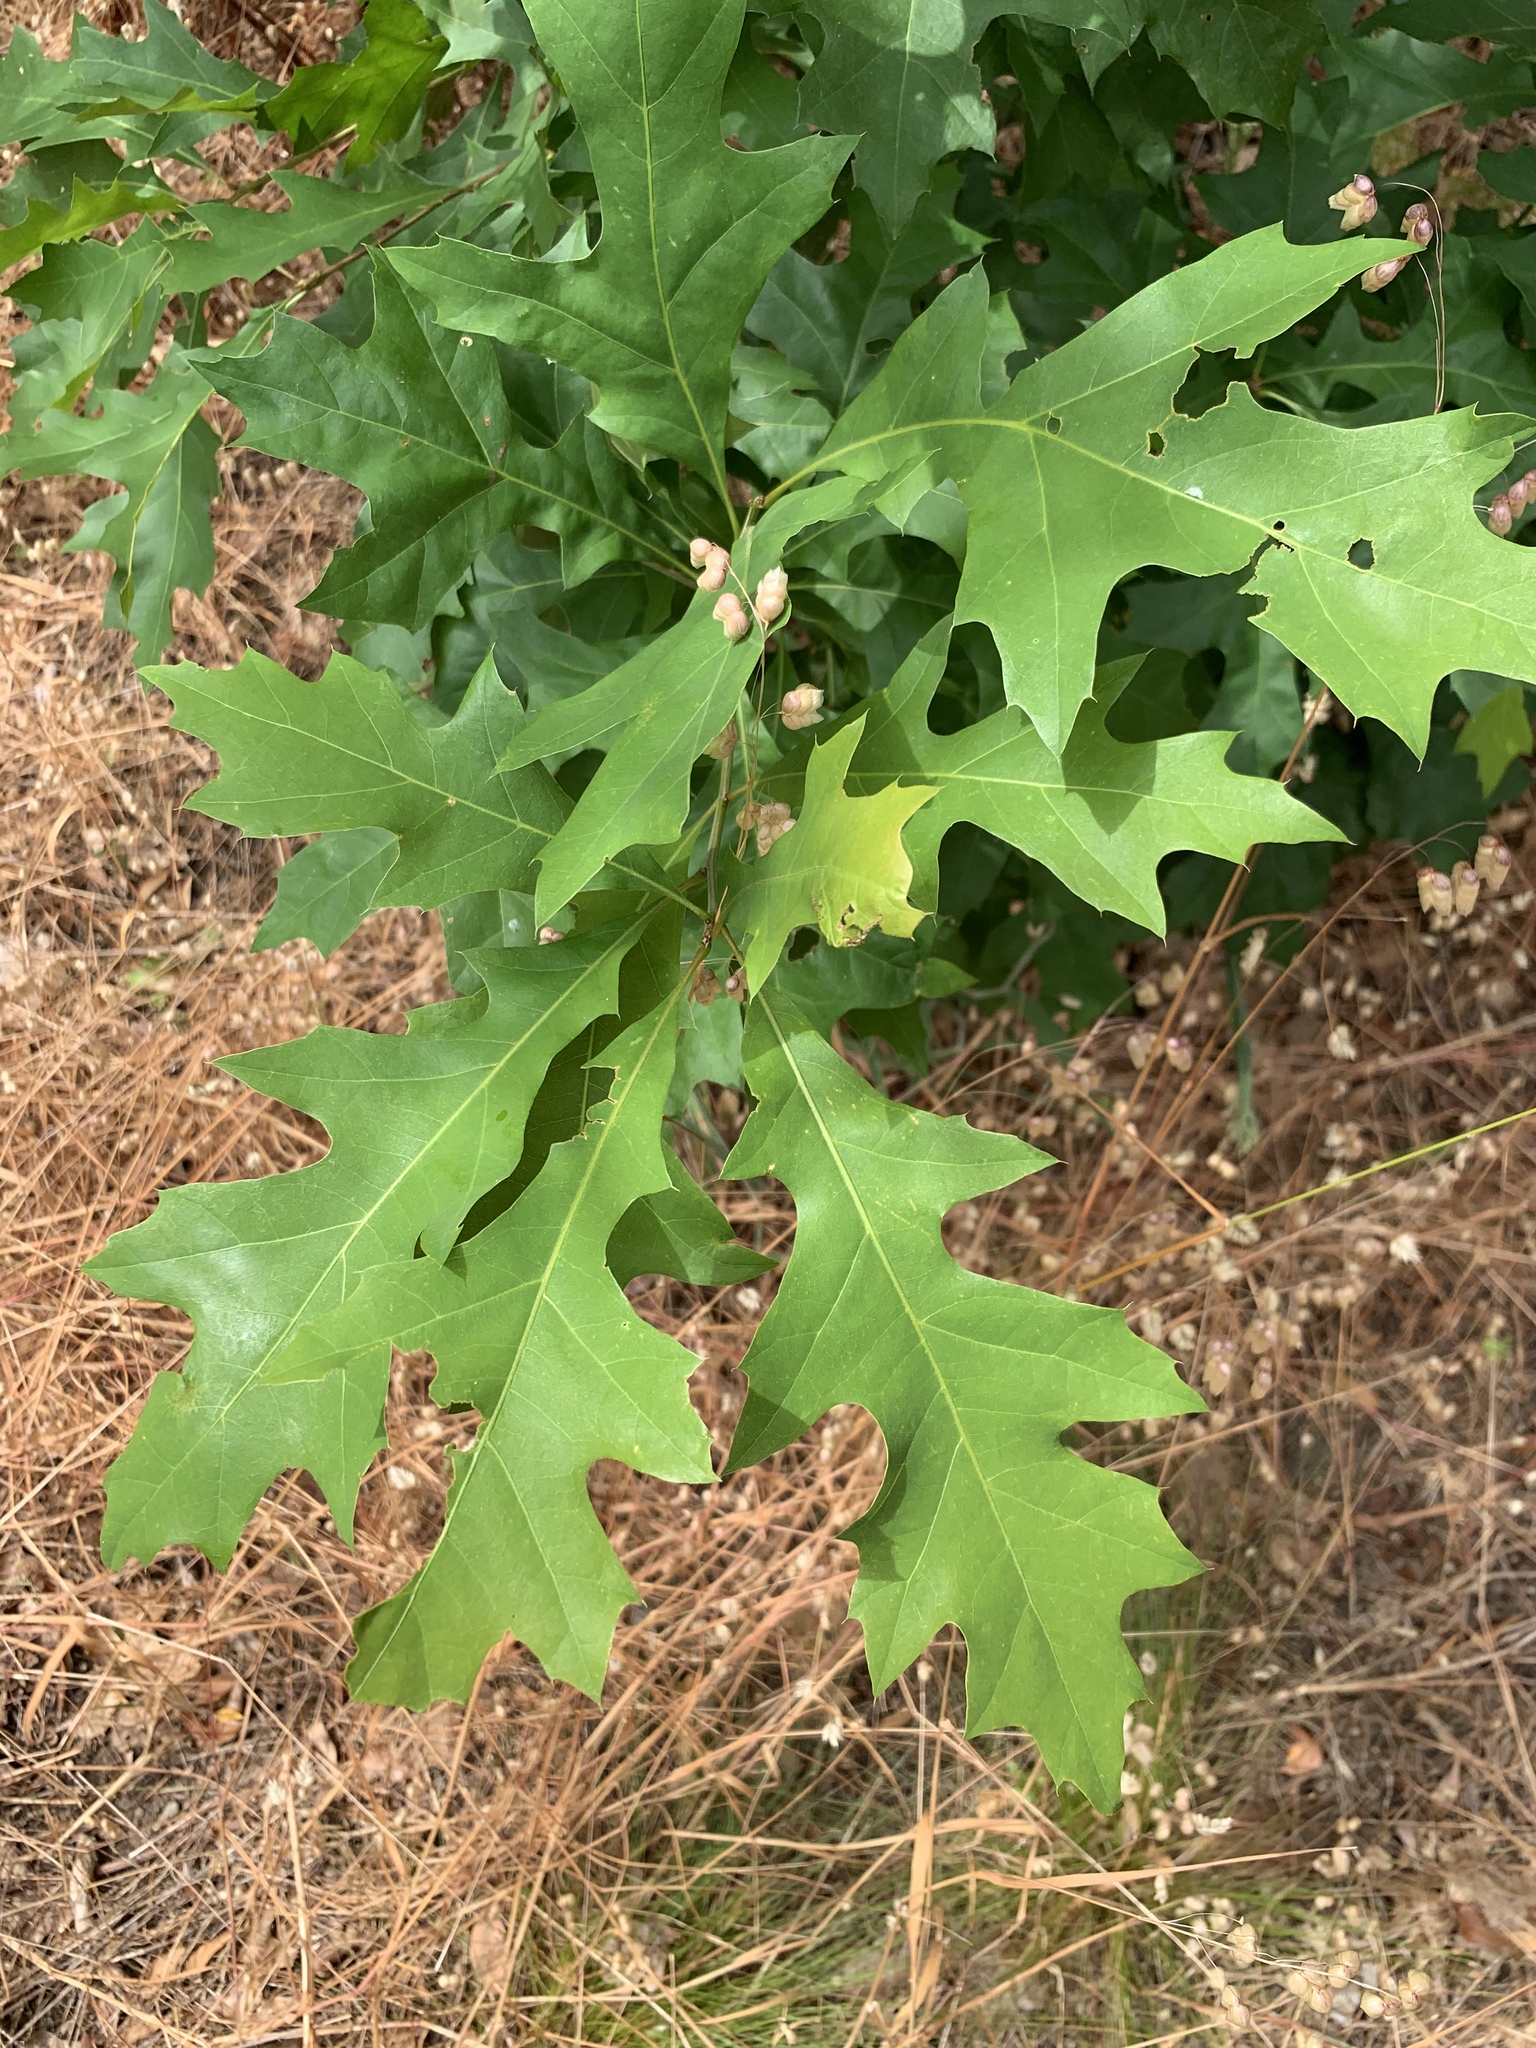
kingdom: Plantae
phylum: Tracheophyta
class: Magnoliopsida
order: Fagales
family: Fagaceae
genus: Quercus
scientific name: Quercus palustris
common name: Pin oak
